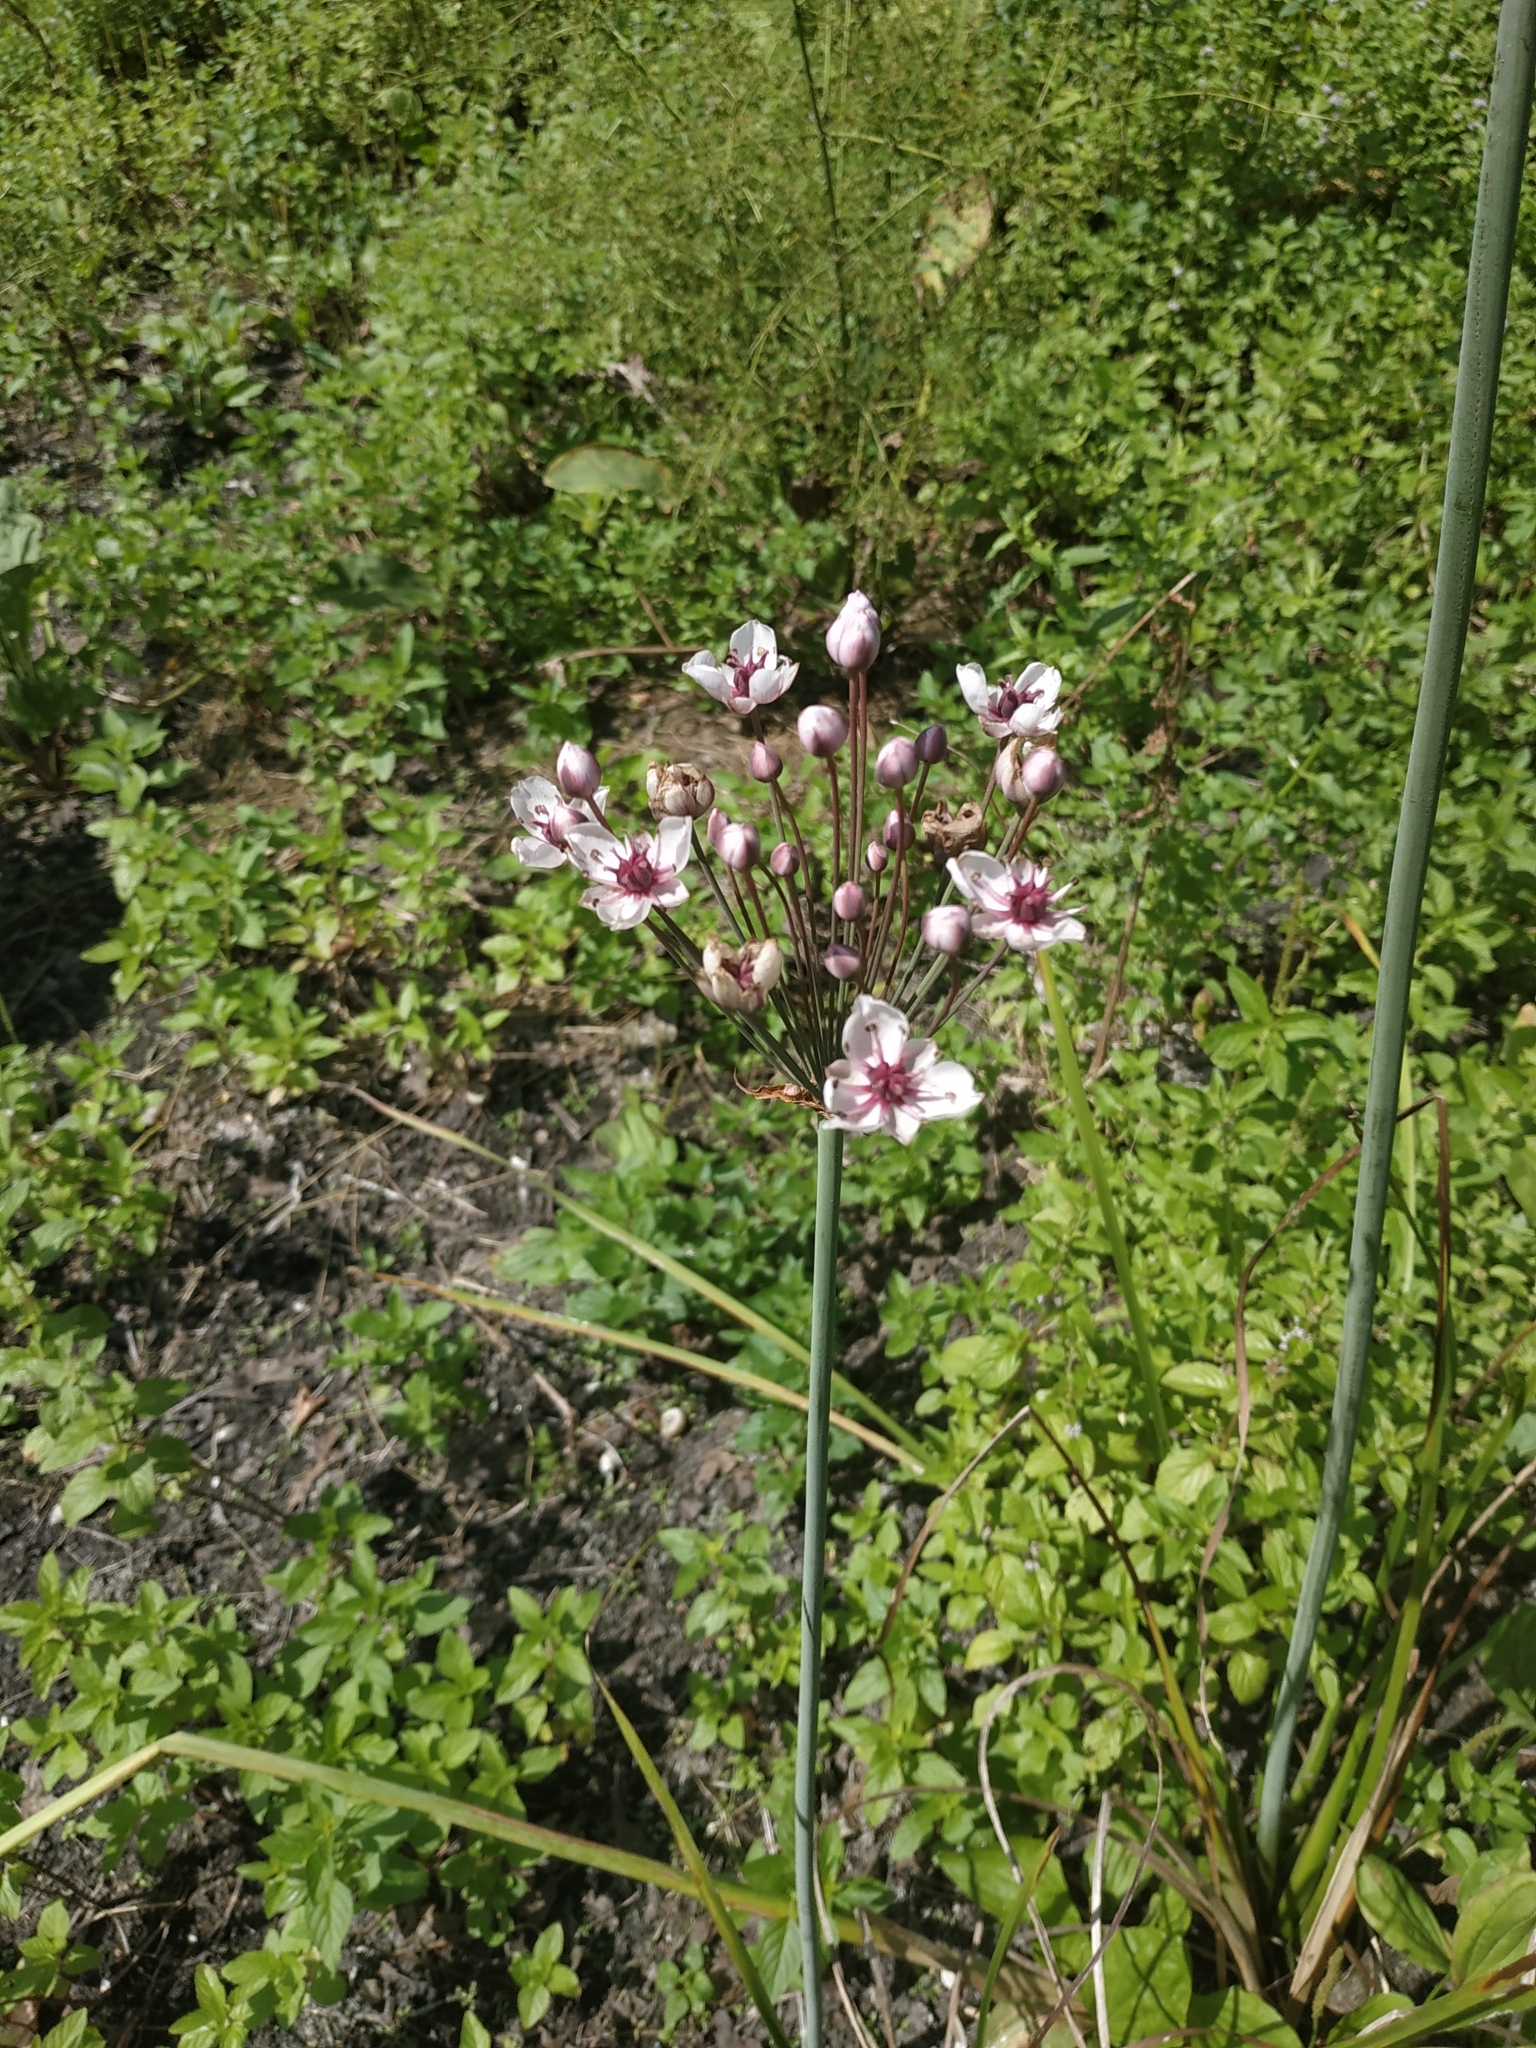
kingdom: Plantae
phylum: Tracheophyta
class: Liliopsida
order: Alismatales
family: Butomaceae
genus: Butomus
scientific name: Butomus umbellatus
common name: Flowering-rush
